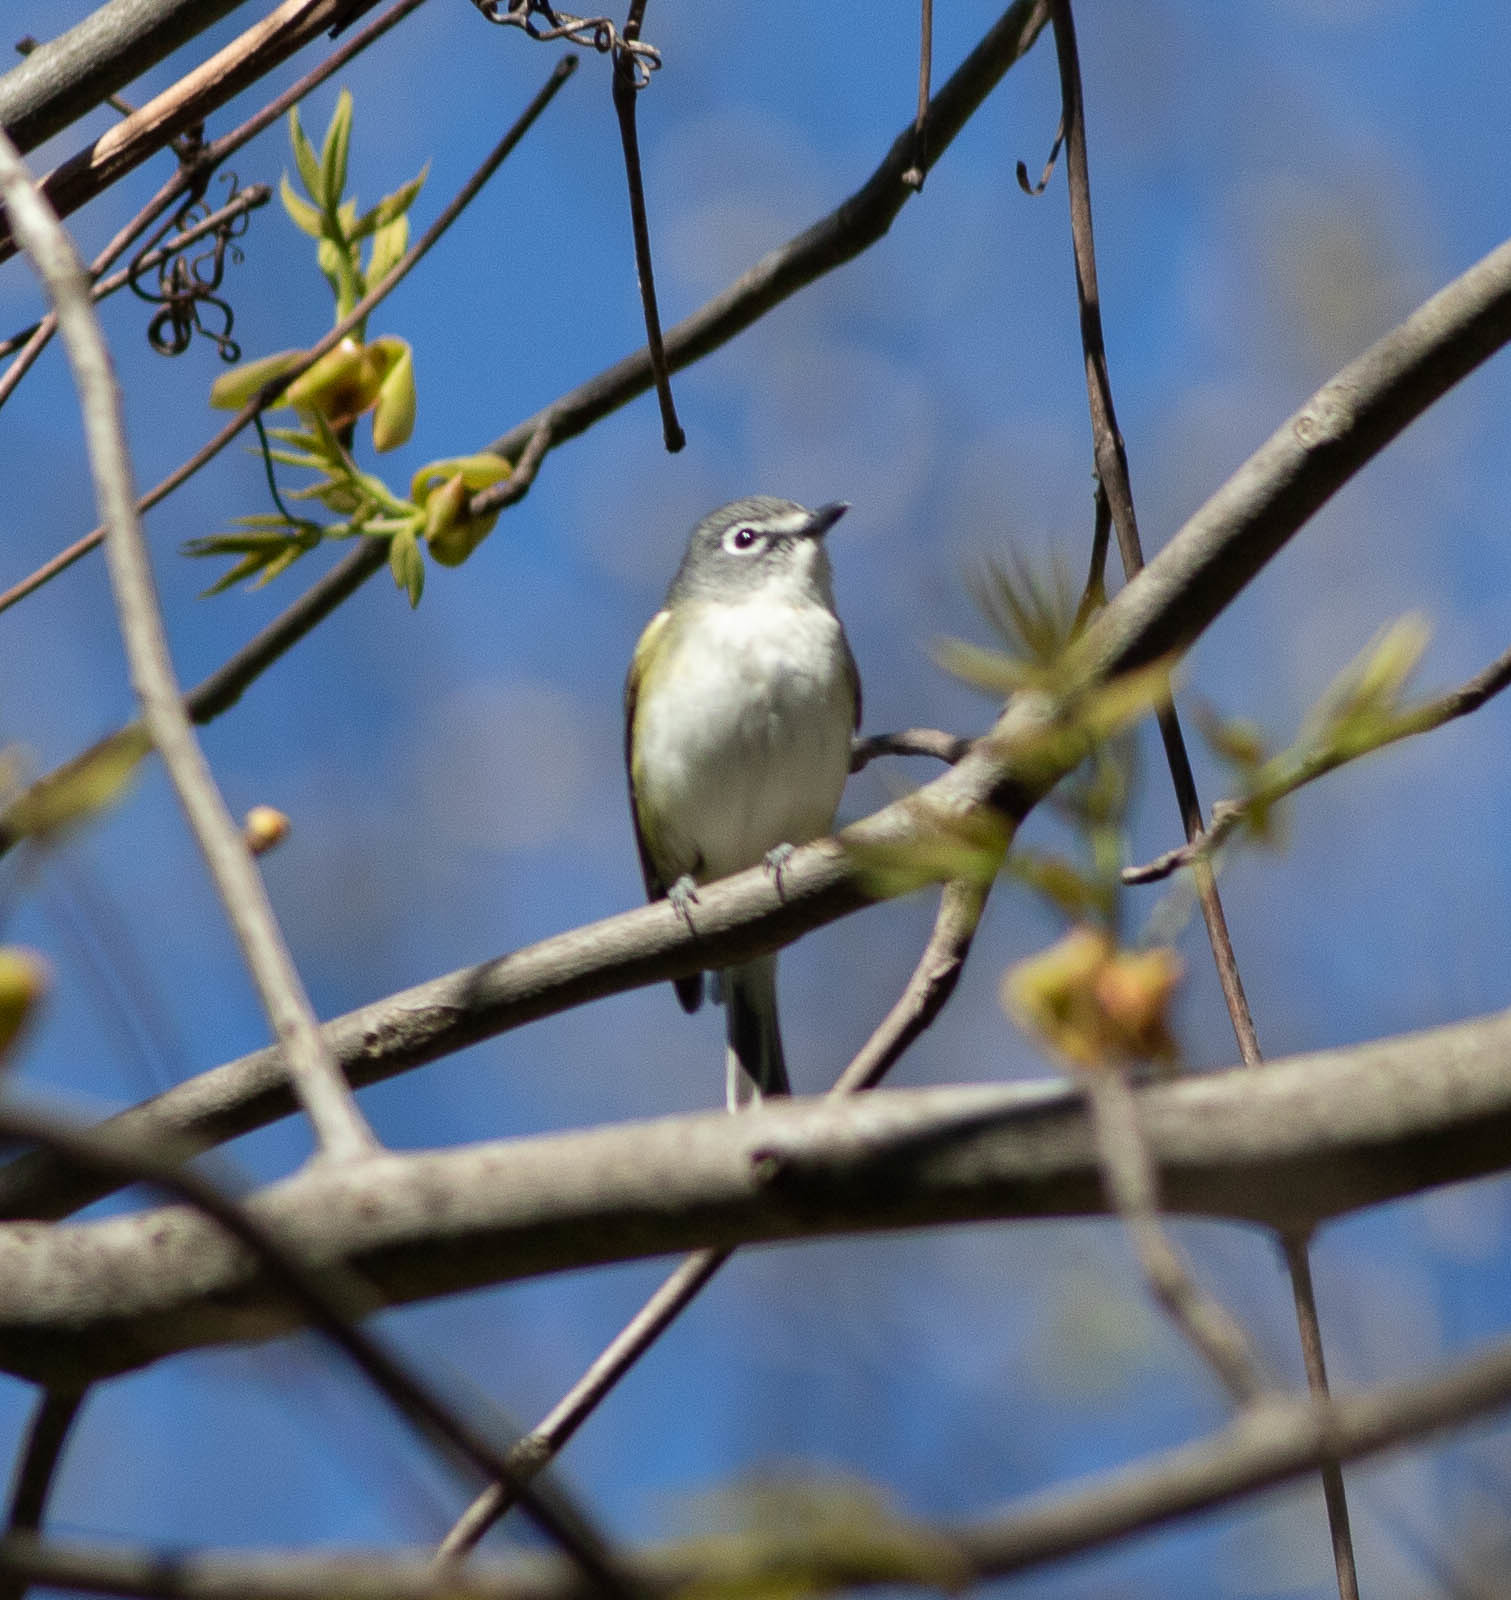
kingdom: Animalia
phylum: Chordata
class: Aves
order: Passeriformes
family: Vireonidae
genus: Vireo
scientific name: Vireo solitarius
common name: Blue-headed vireo
